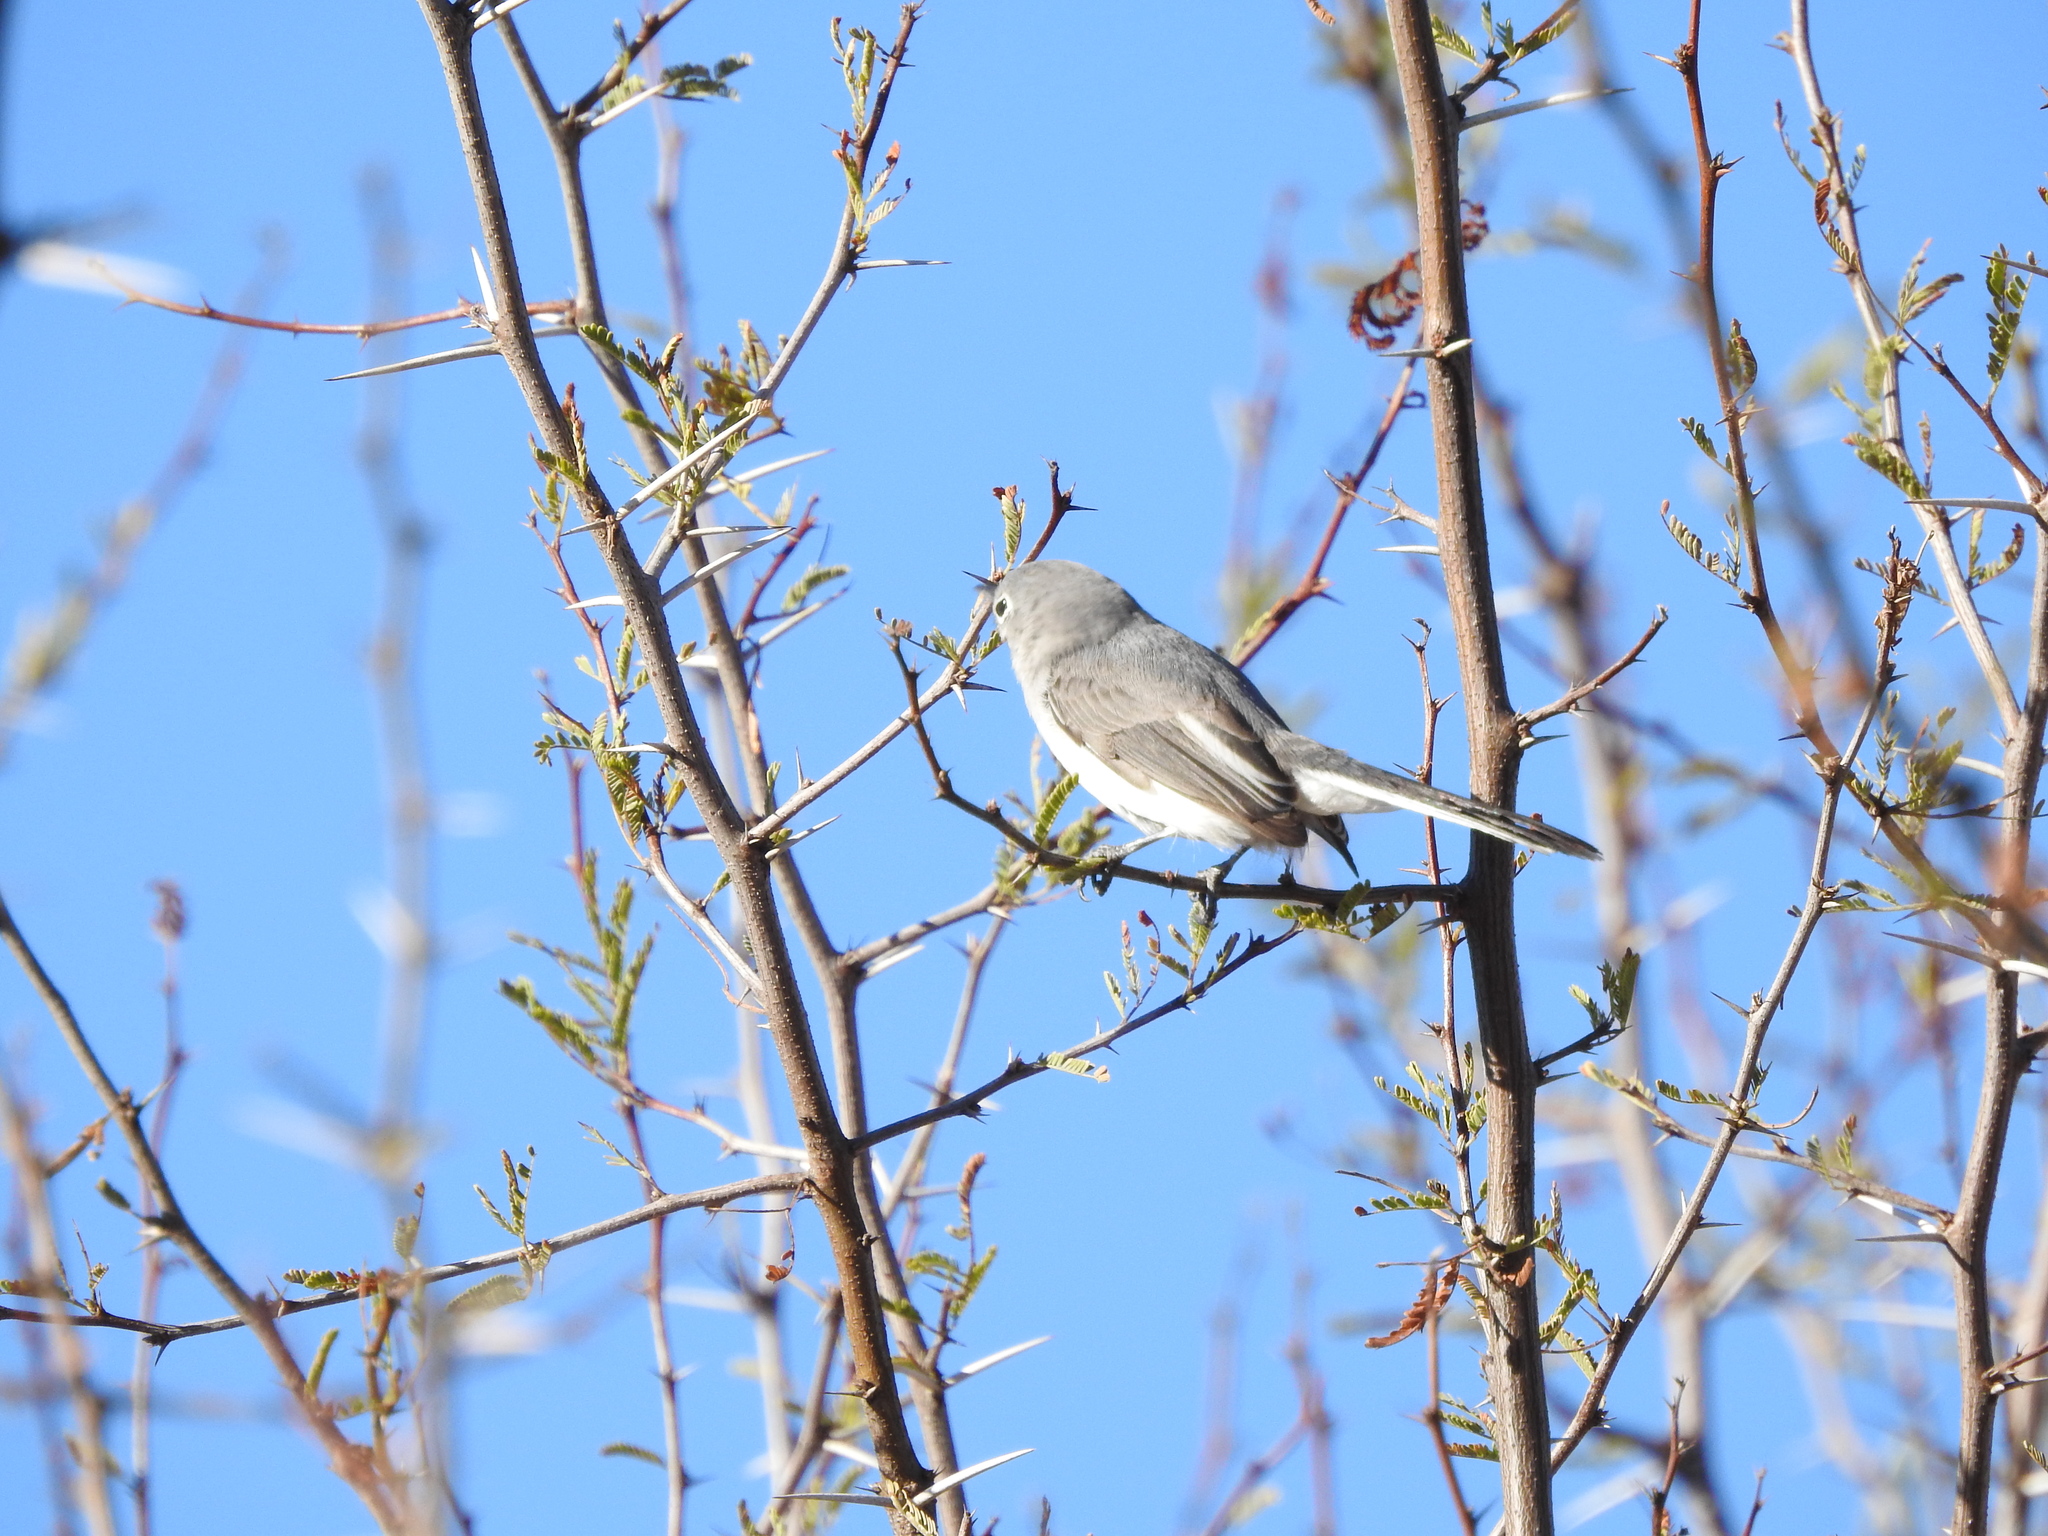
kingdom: Animalia
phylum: Chordata
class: Aves
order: Passeriformes
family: Polioptilidae
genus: Polioptila
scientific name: Polioptila caerulea
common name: Blue-gray gnatcatcher
